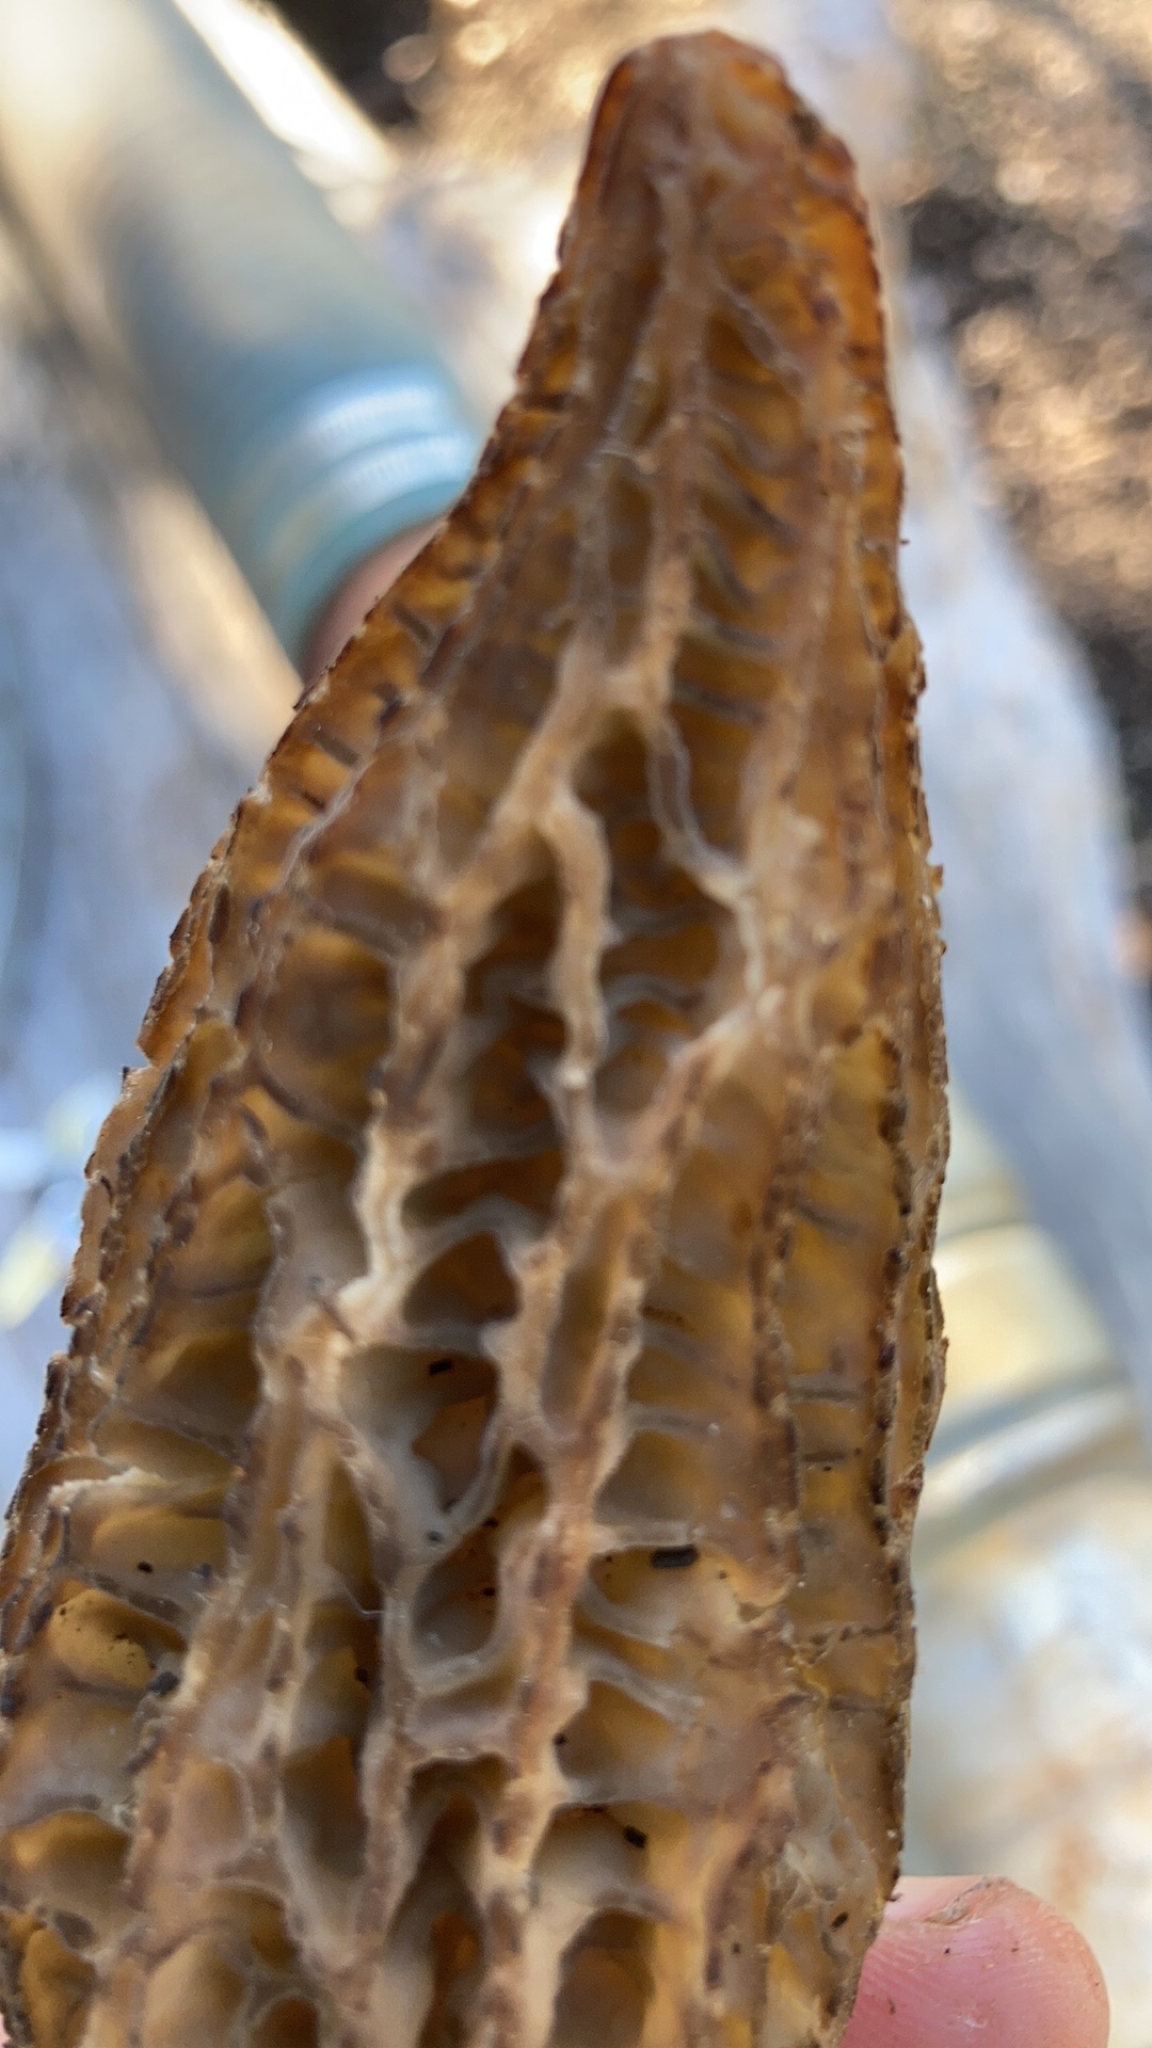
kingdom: Fungi
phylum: Ascomycota
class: Pezizomycetes
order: Pezizales
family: Morchellaceae
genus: Morchella
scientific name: Morchella importuna
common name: Landscaping black morel
